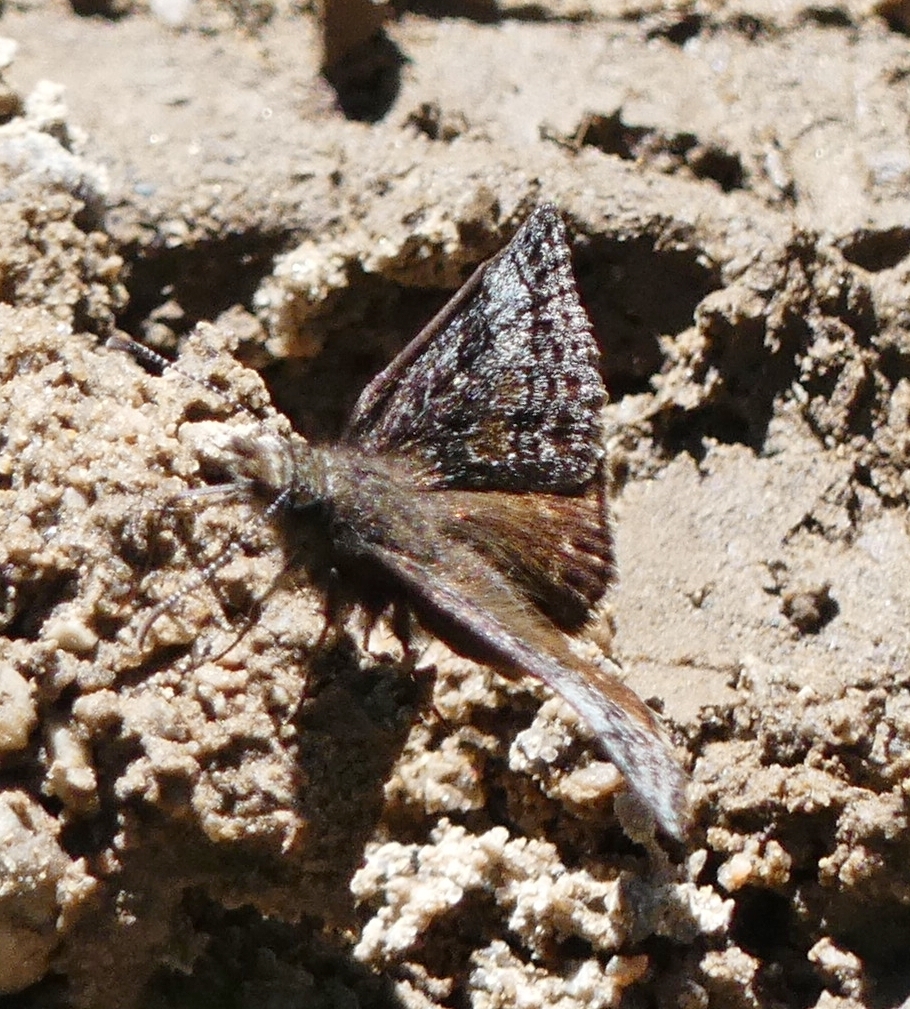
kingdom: Animalia
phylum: Arthropoda
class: Insecta
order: Lepidoptera
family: Hesperiidae
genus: Erynnis
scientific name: Erynnis icelus
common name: Dreamy duskywing
